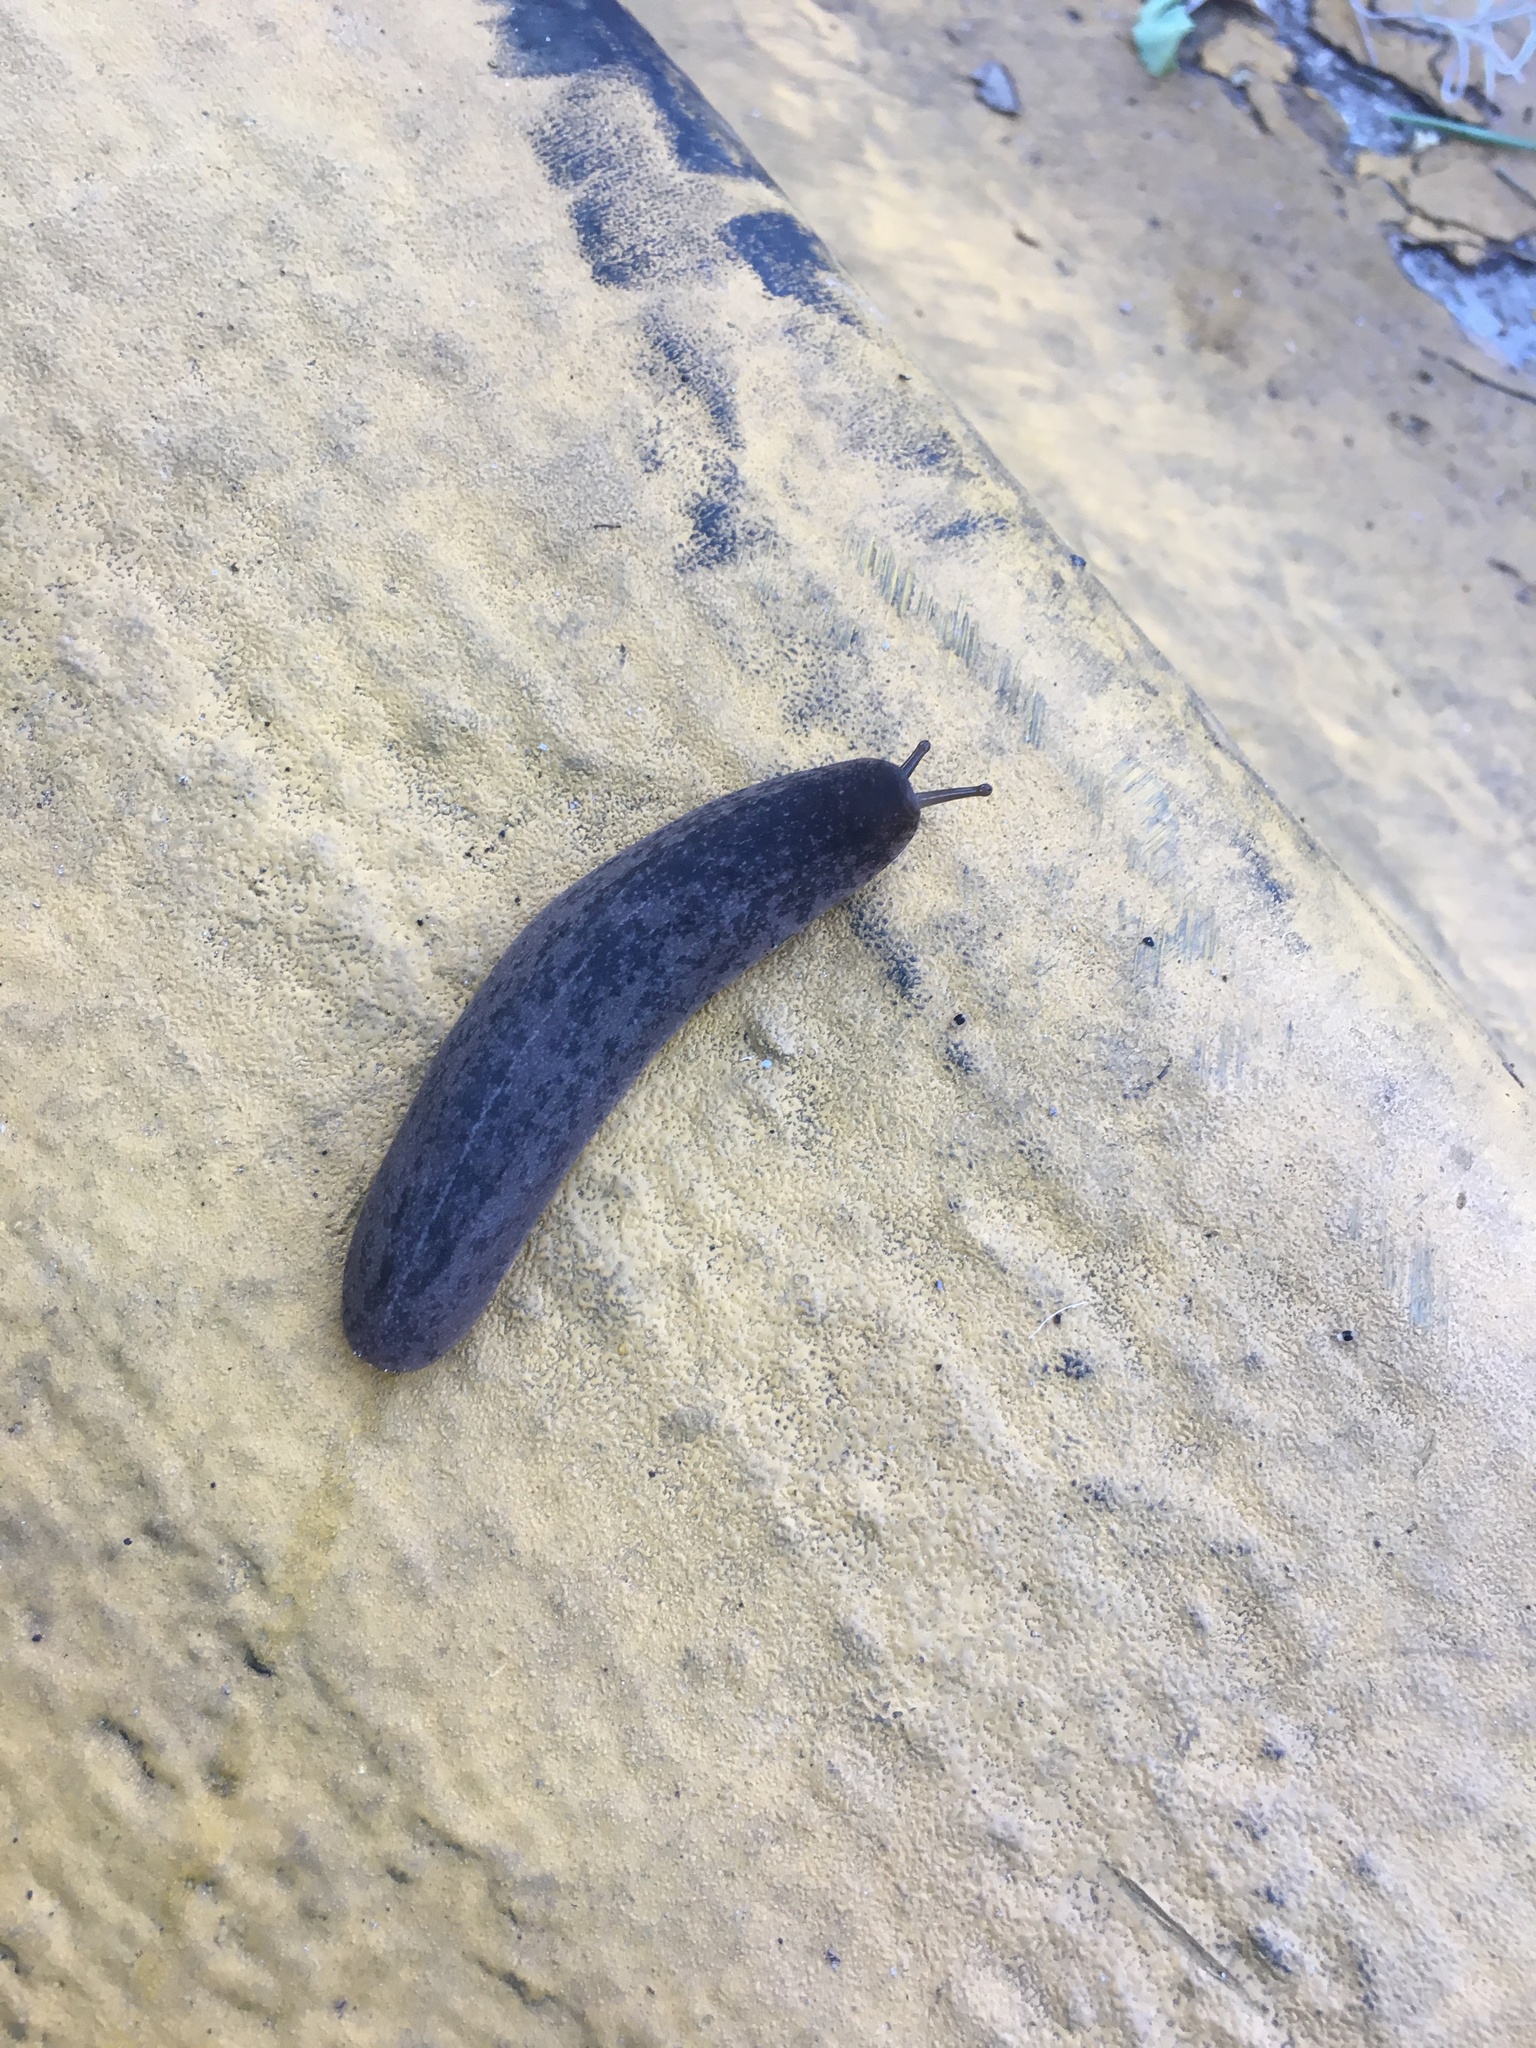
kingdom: Animalia
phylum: Mollusca
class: Gastropoda
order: Systellommatophora
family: Veronicellidae
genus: Leidyula
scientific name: Leidyula floridana
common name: Florida leatherleaf
